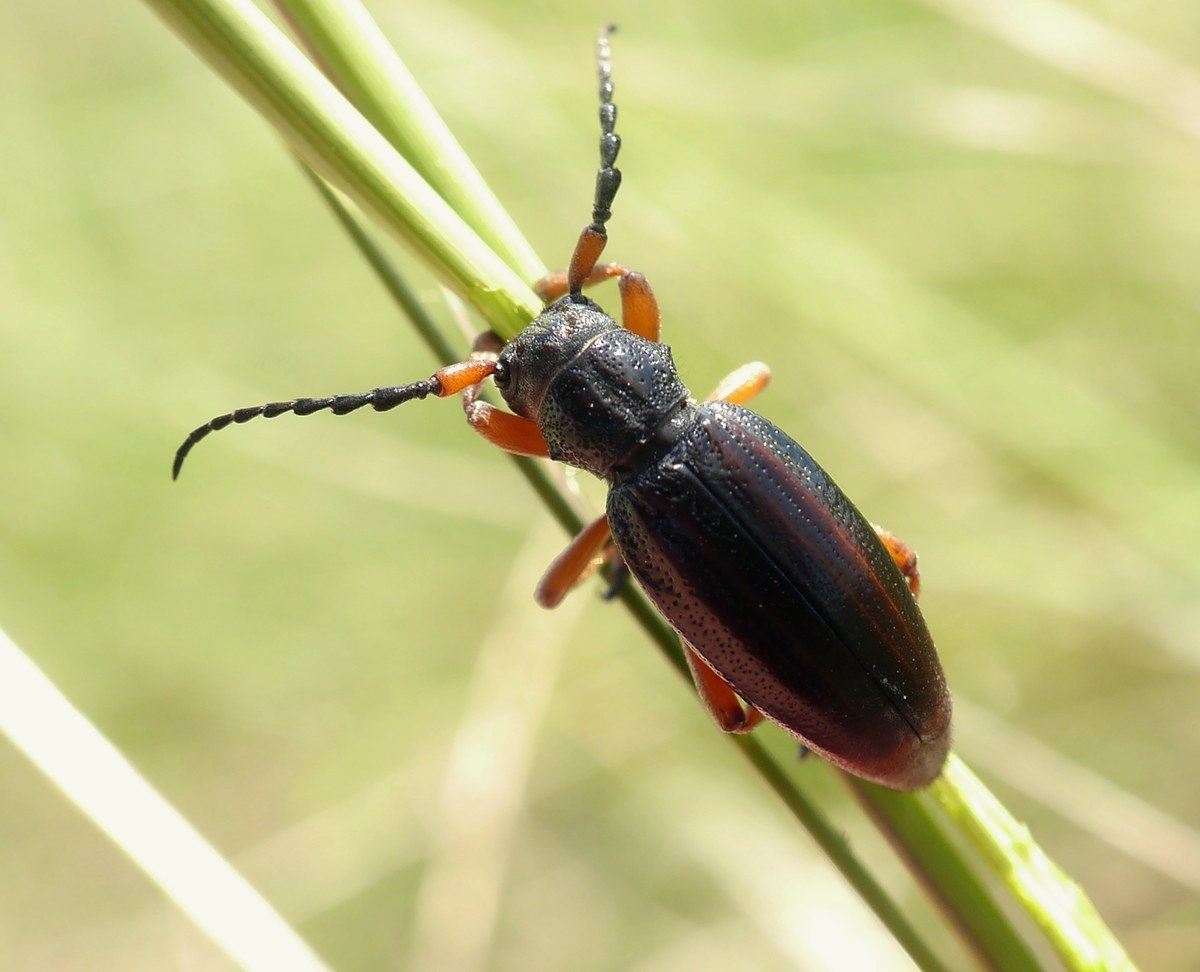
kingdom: Animalia
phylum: Arthropoda
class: Insecta
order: Coleoptera
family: Cerambycidae
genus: Dorcadion
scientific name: Dorcadion fulvum
